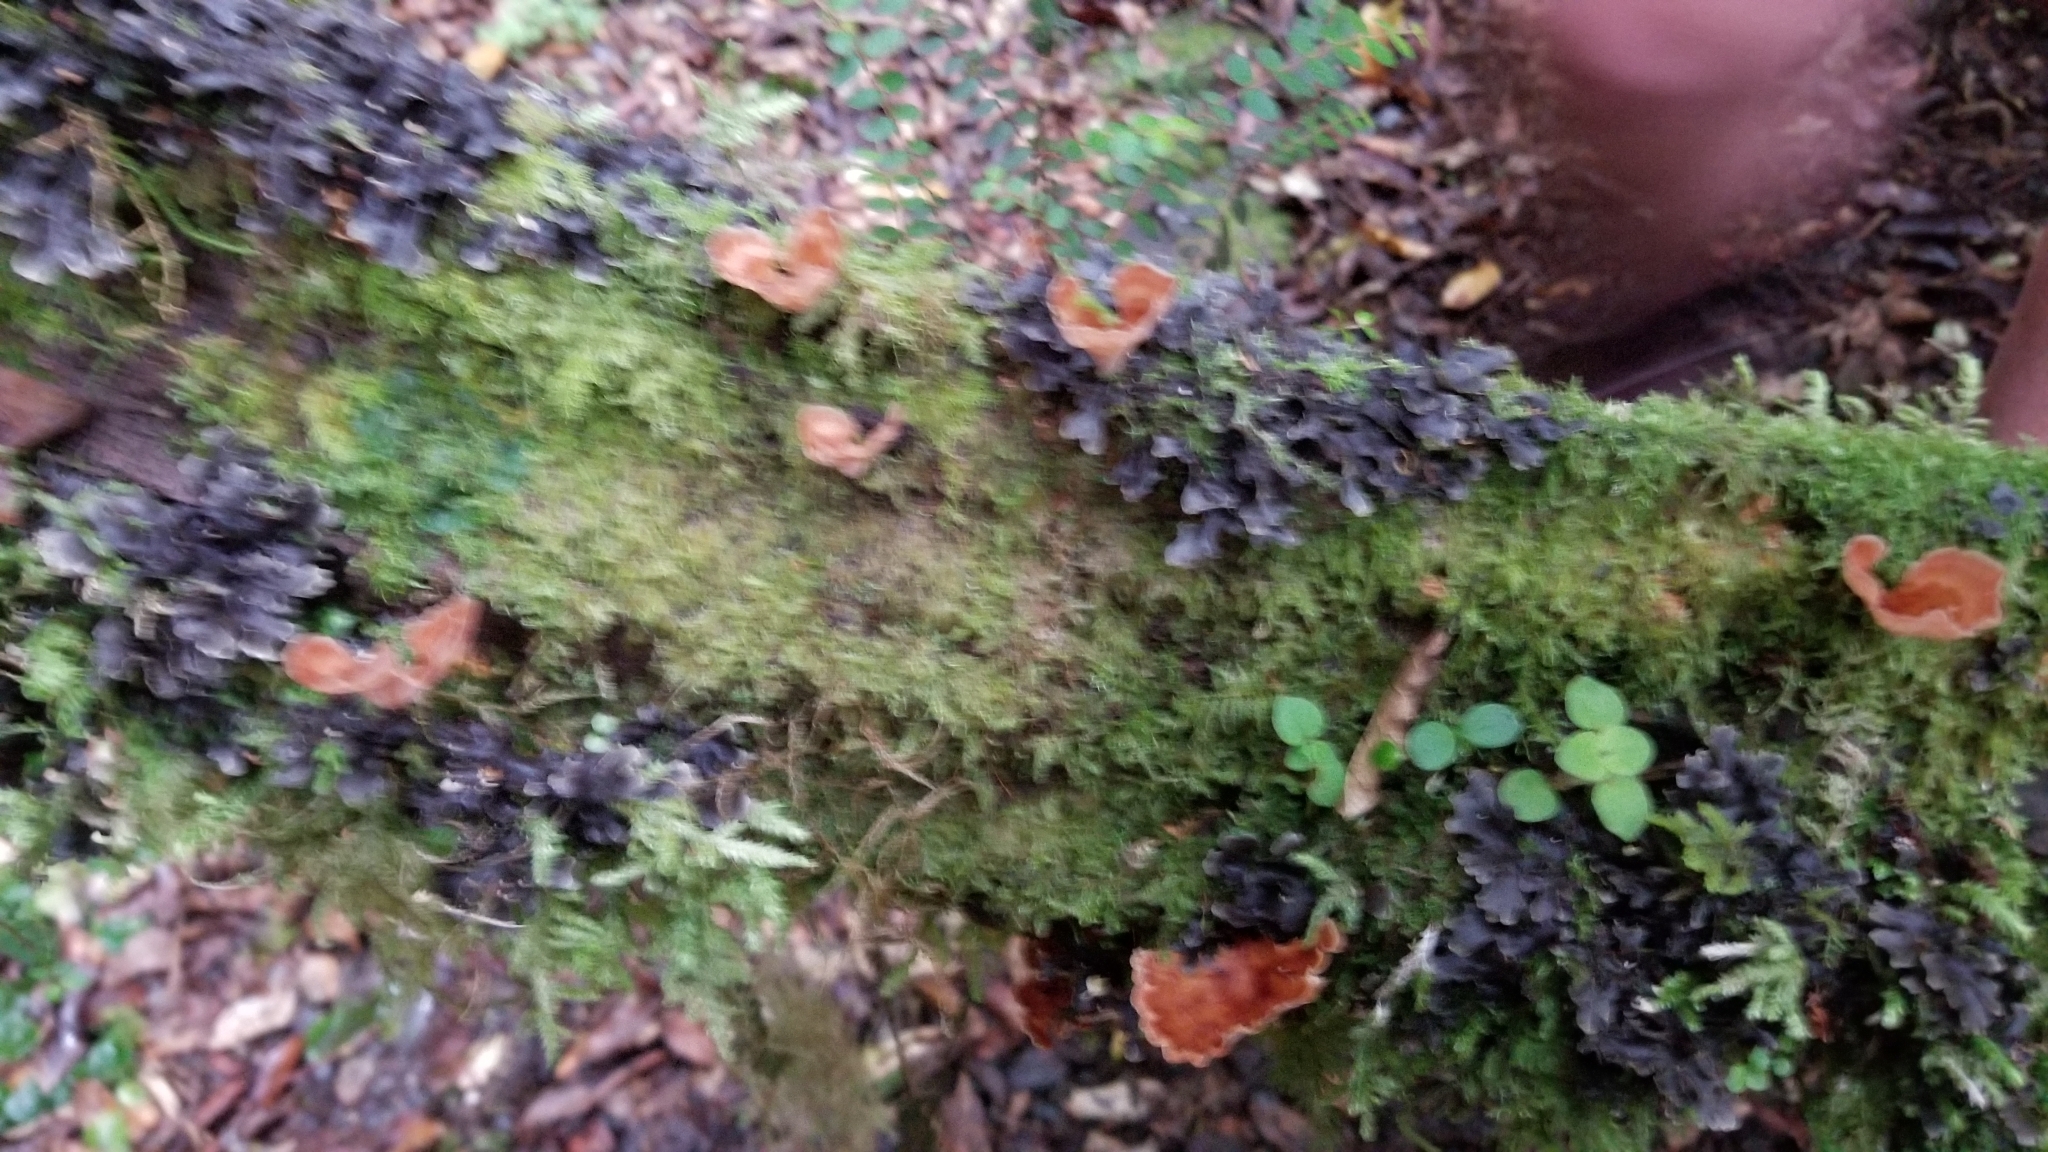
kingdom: Fungi
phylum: Basidiomycota
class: Agaricomycetes
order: Polyporales
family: Podoscyphaceae
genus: Podoscypha
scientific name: Podoscypha petalodes
